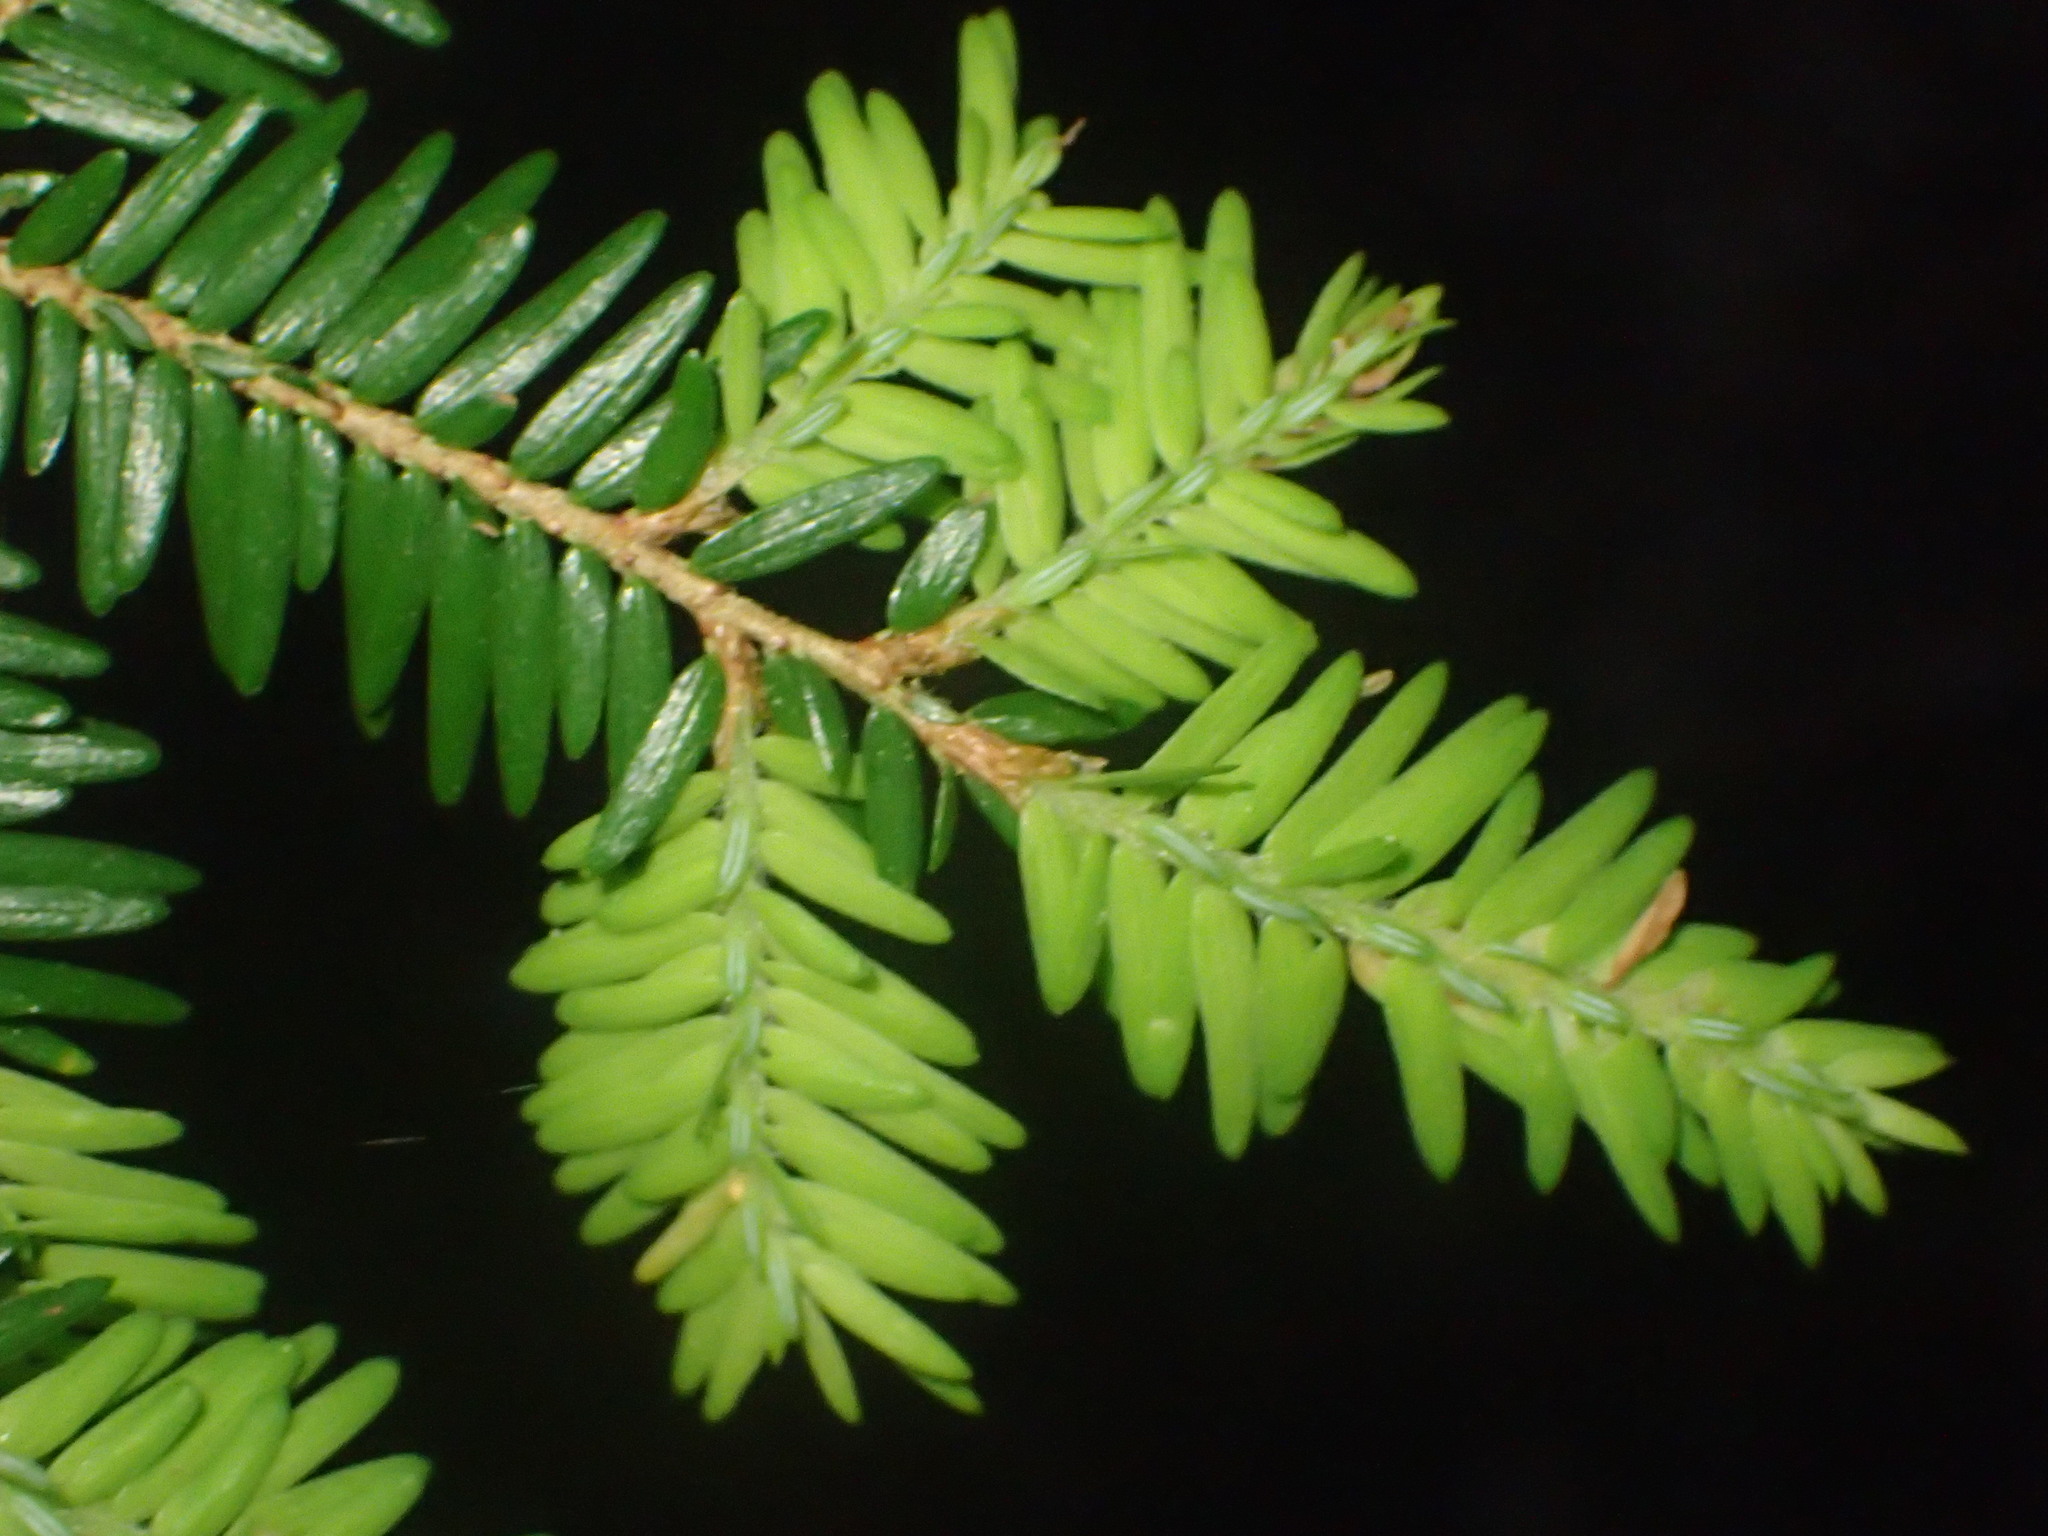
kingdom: Plantae
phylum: Tracheophyta
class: Pinopsida
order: Pinales
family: Pinaceae
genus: Tsuga
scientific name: Tsuga canadensis
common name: Eastern hemlock
